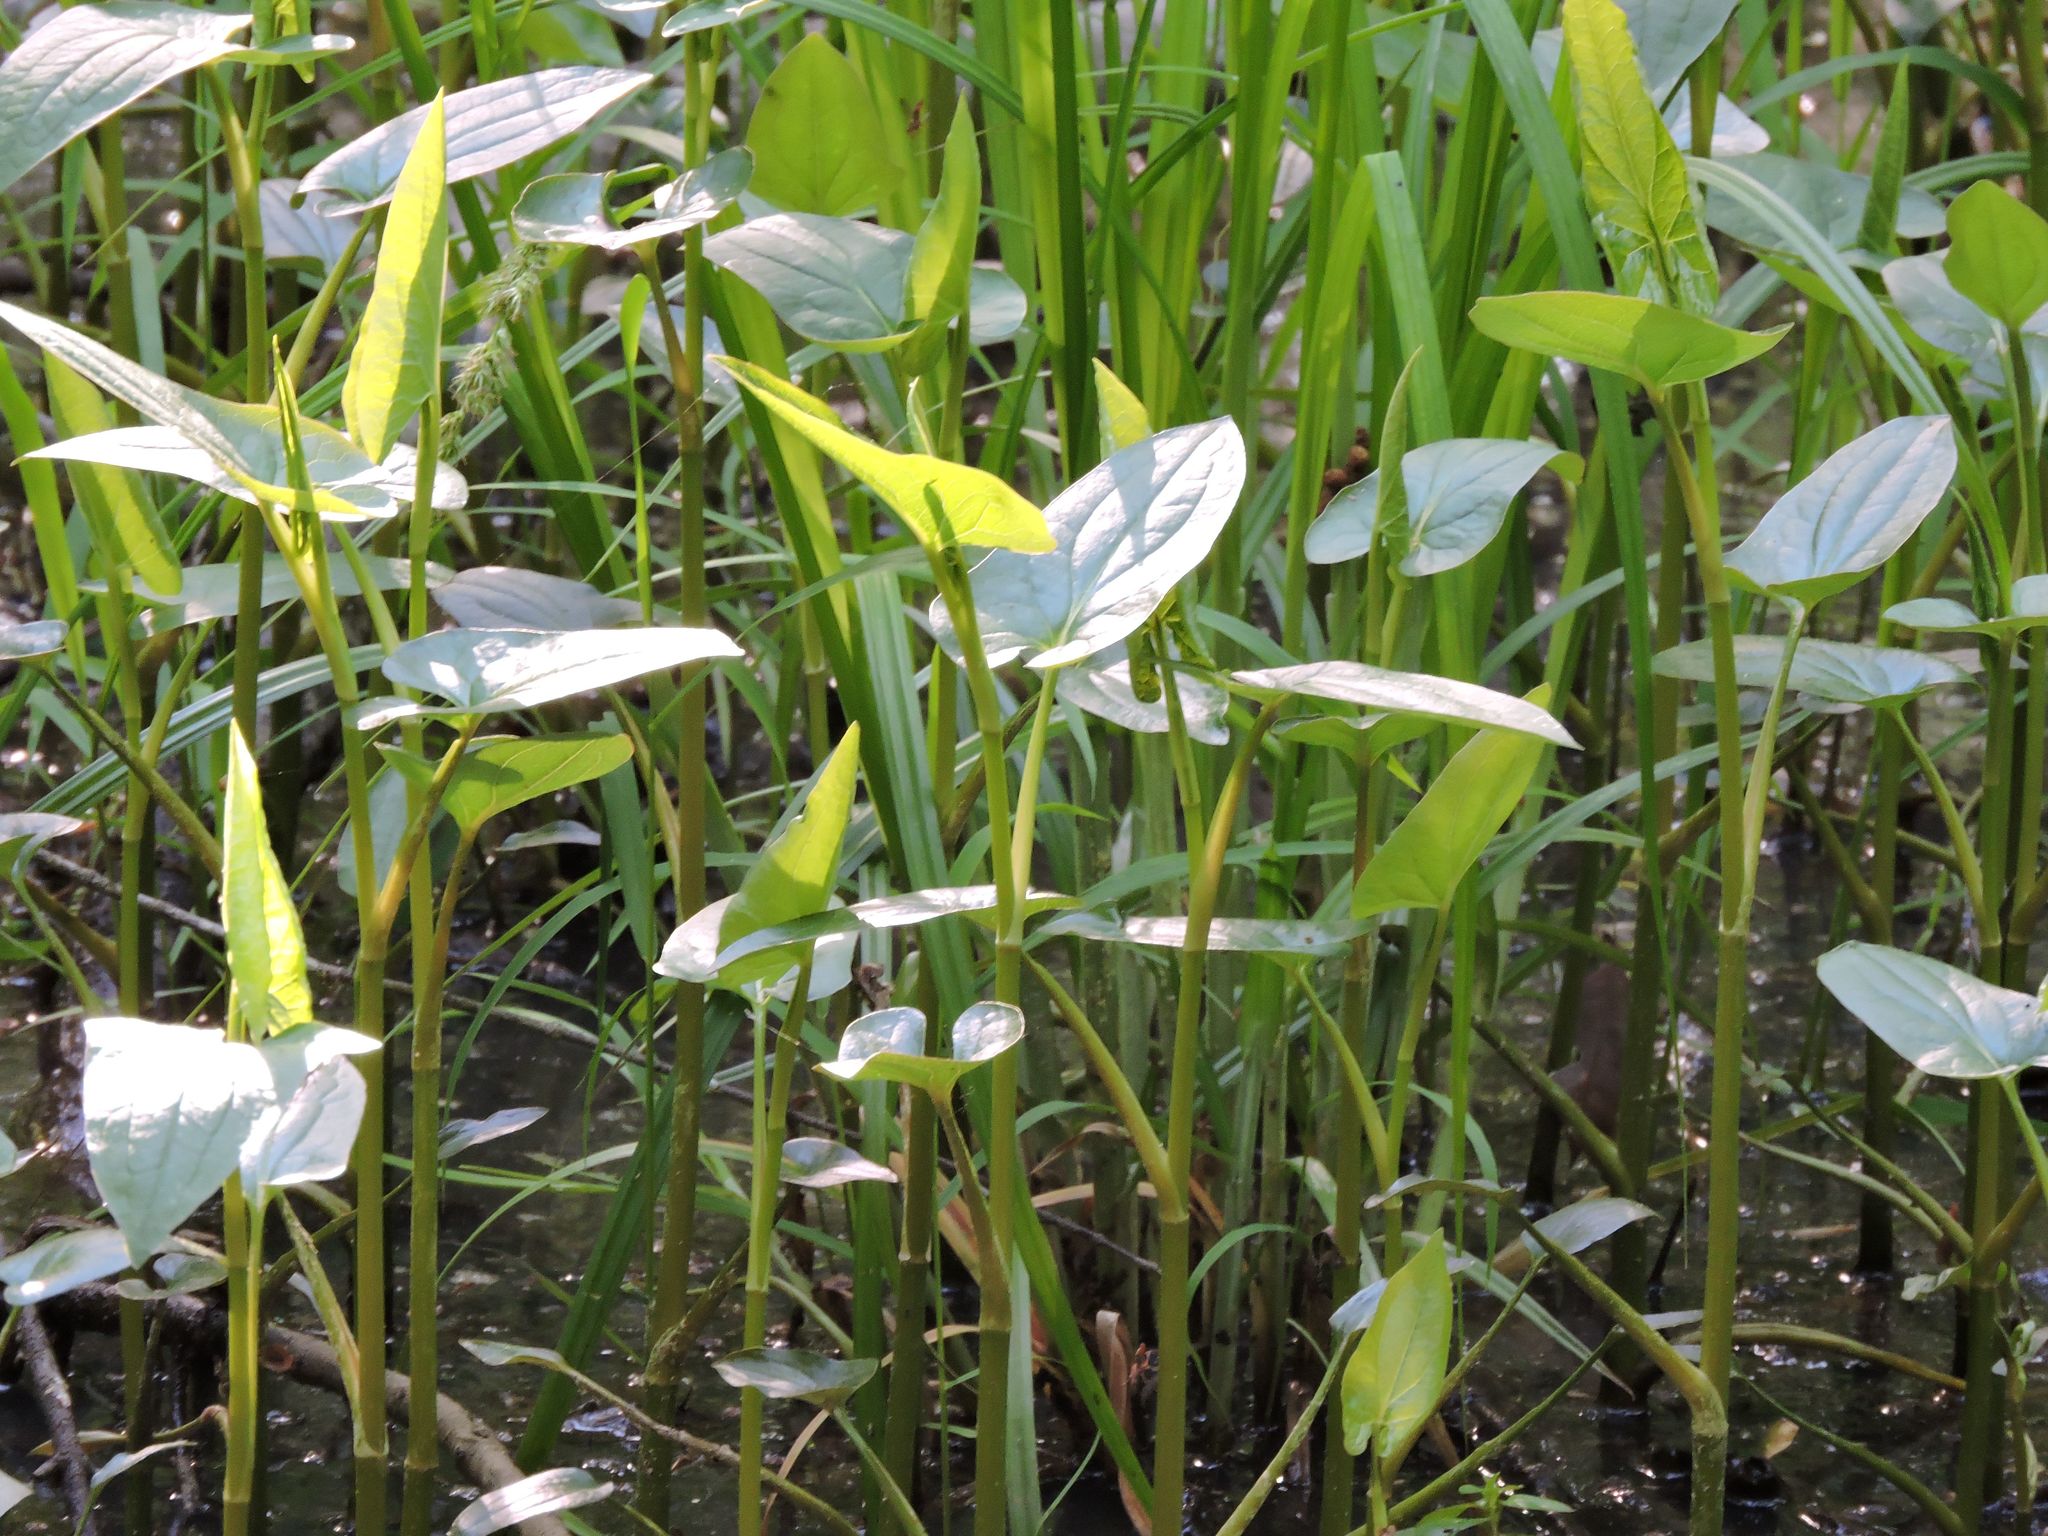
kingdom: Plantae
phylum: Tracheophyta
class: Magnoliopsida
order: Piperales
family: Saururaceae
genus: Saururus
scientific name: Saururus cernuus
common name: Lizard's-tail
